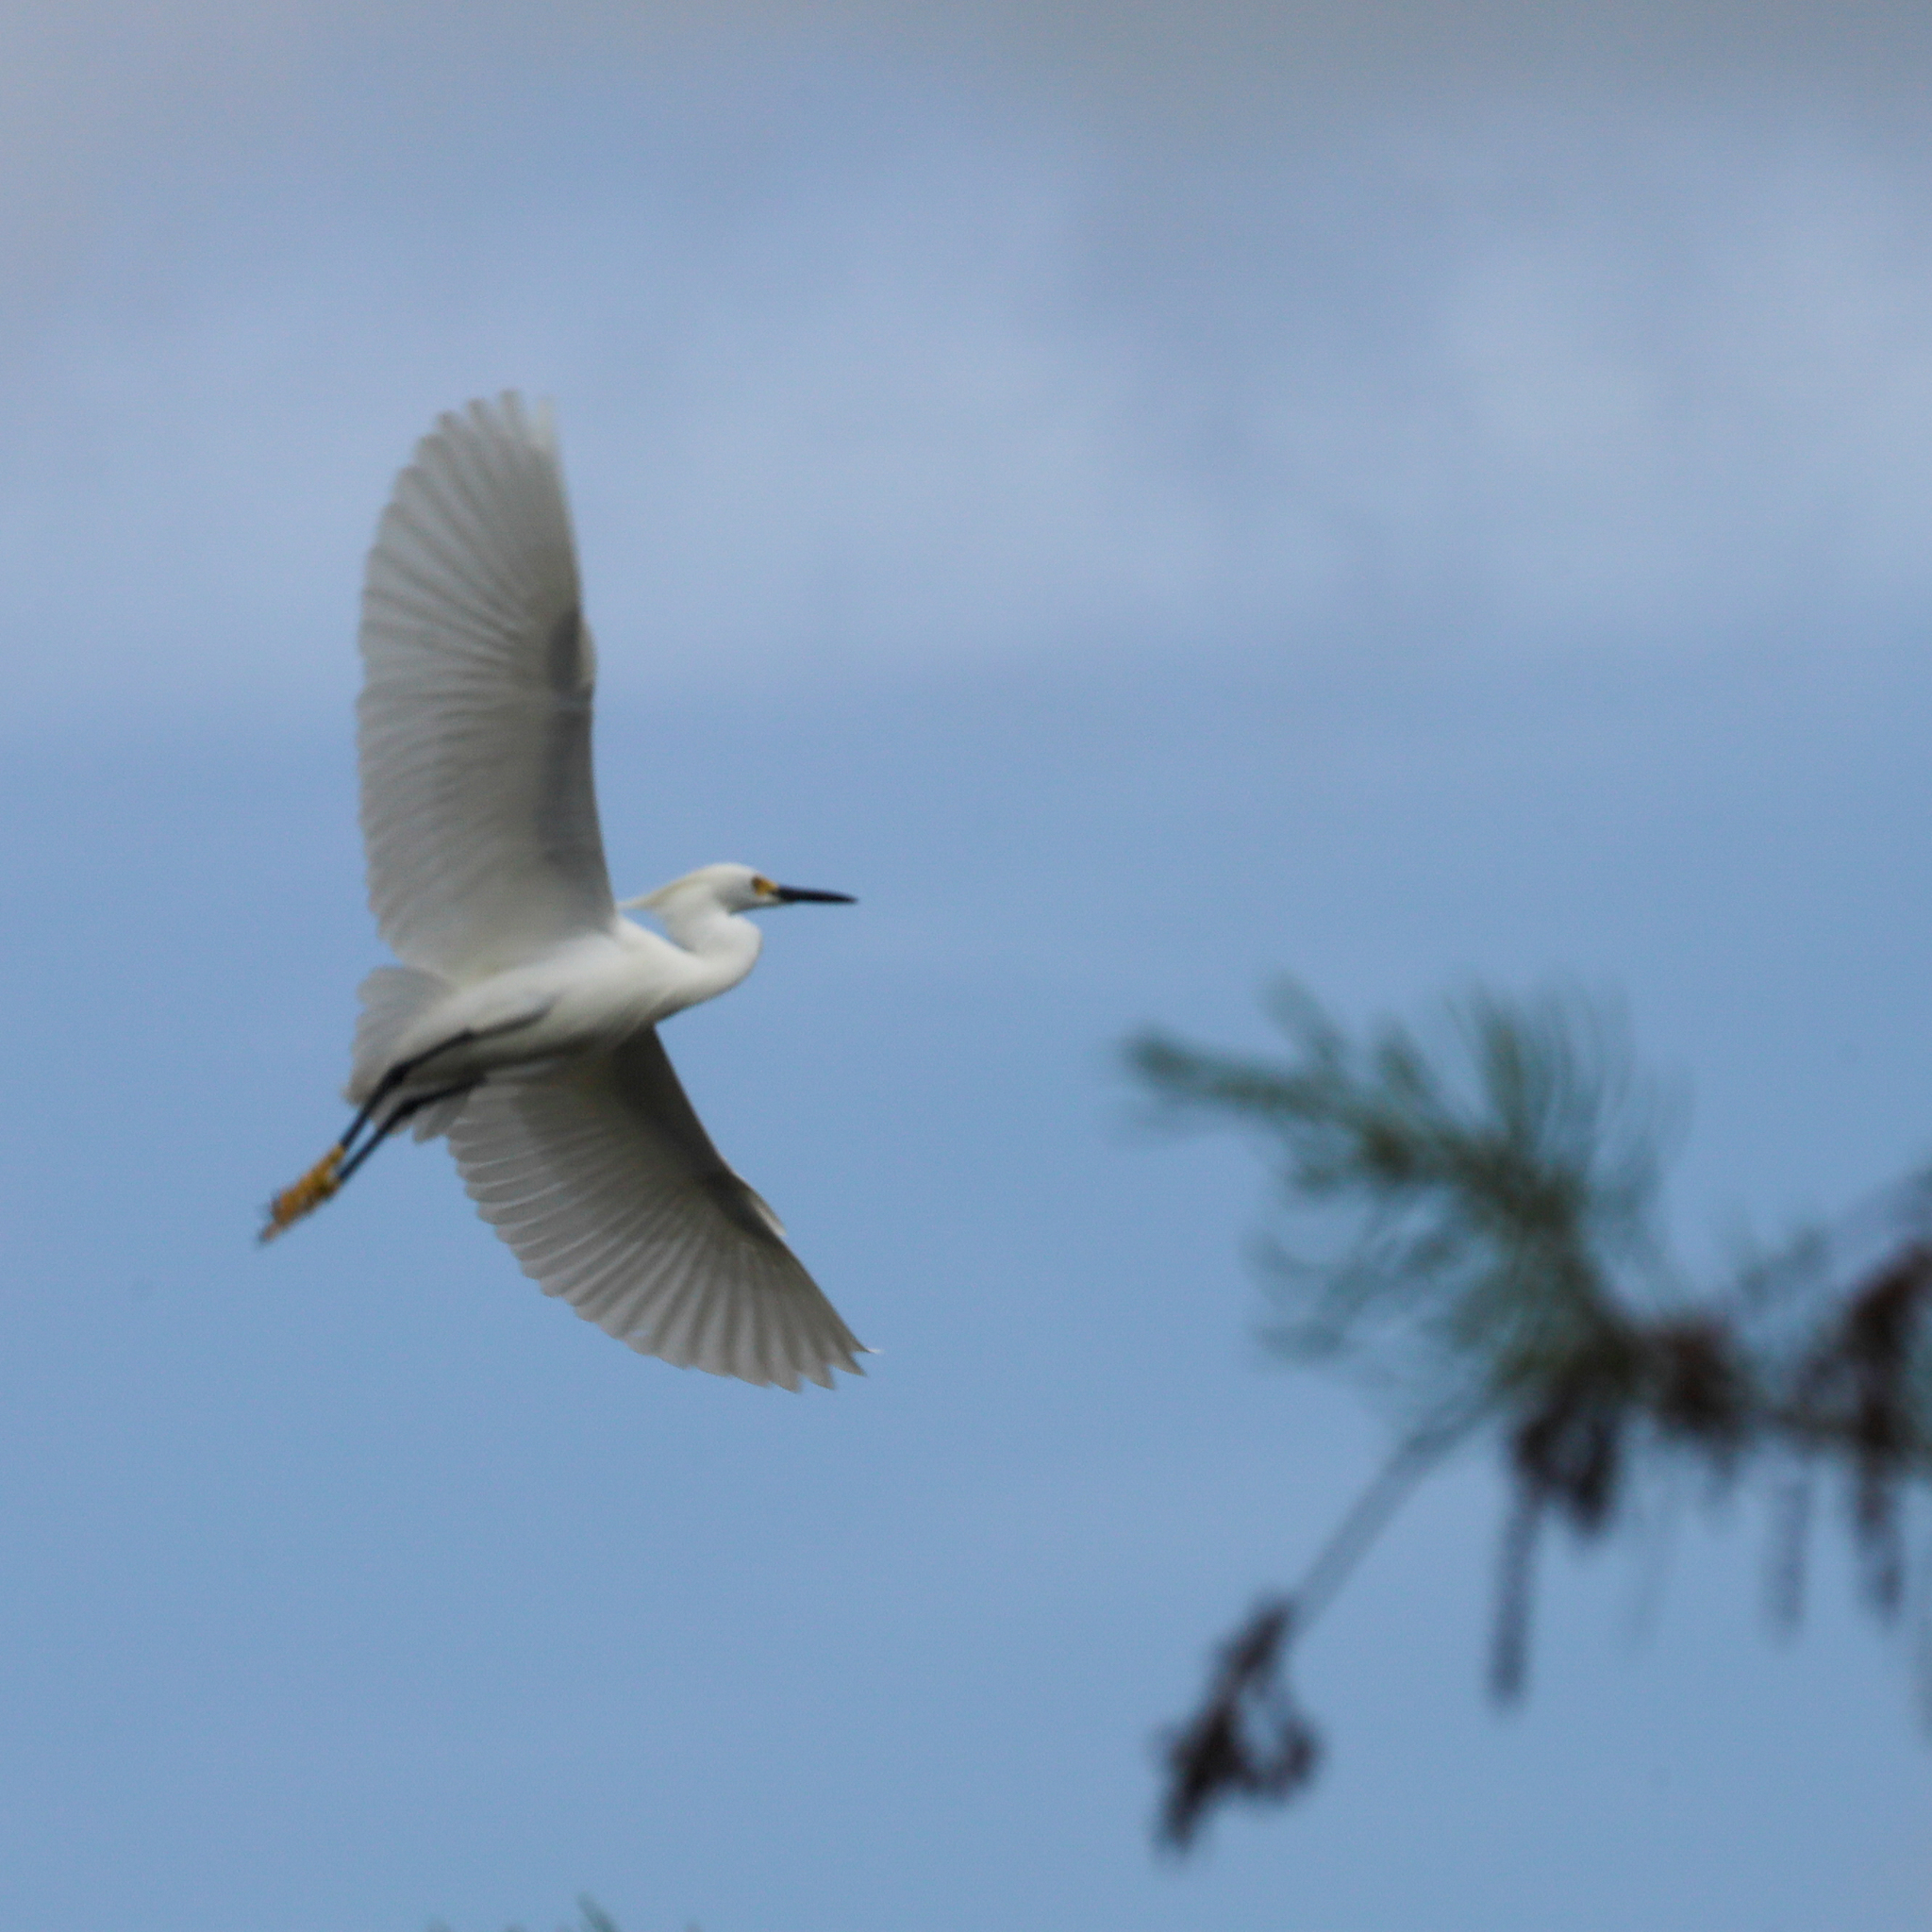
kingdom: Animalia
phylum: Chordata
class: Aves
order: Pelecaniformes
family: Ardeidae
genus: Egretta
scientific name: Egretta thula
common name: Snowy egret
